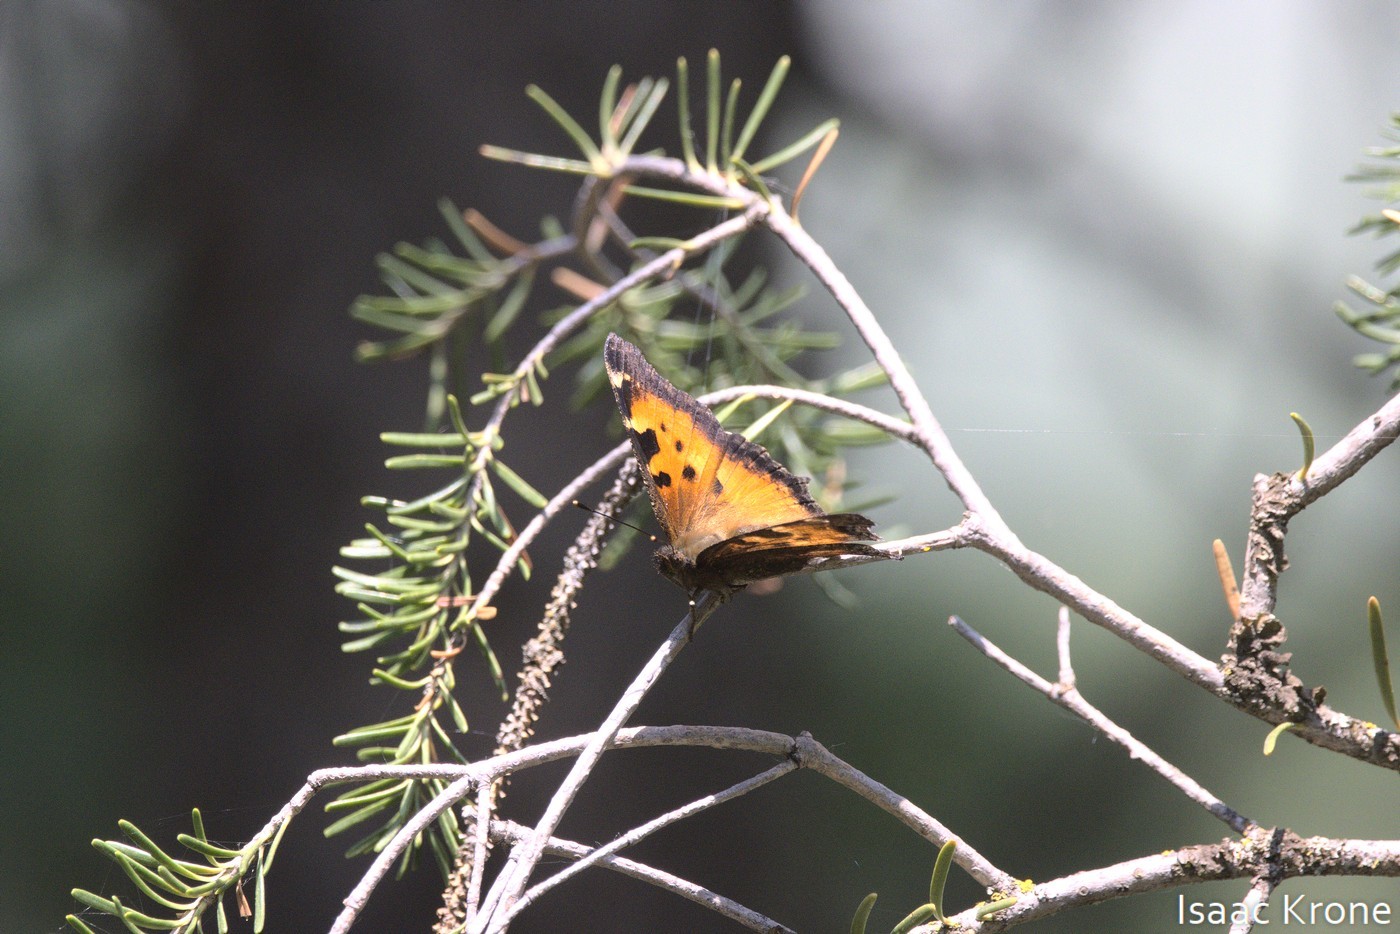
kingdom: Animalia
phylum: Arthropoda
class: Insecta
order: Lepidoptera
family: Nymphalidae
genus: Nymphalis
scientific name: Nymphalis californica
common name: California tortoiseshell
